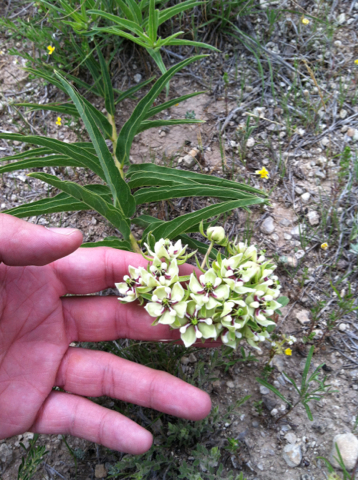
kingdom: Plantae
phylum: Tracheophyta
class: Magnoliopsida
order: Gentianales
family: Apocynaceae
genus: Asclepias
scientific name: Asclepias asperula
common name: Antelope horns
